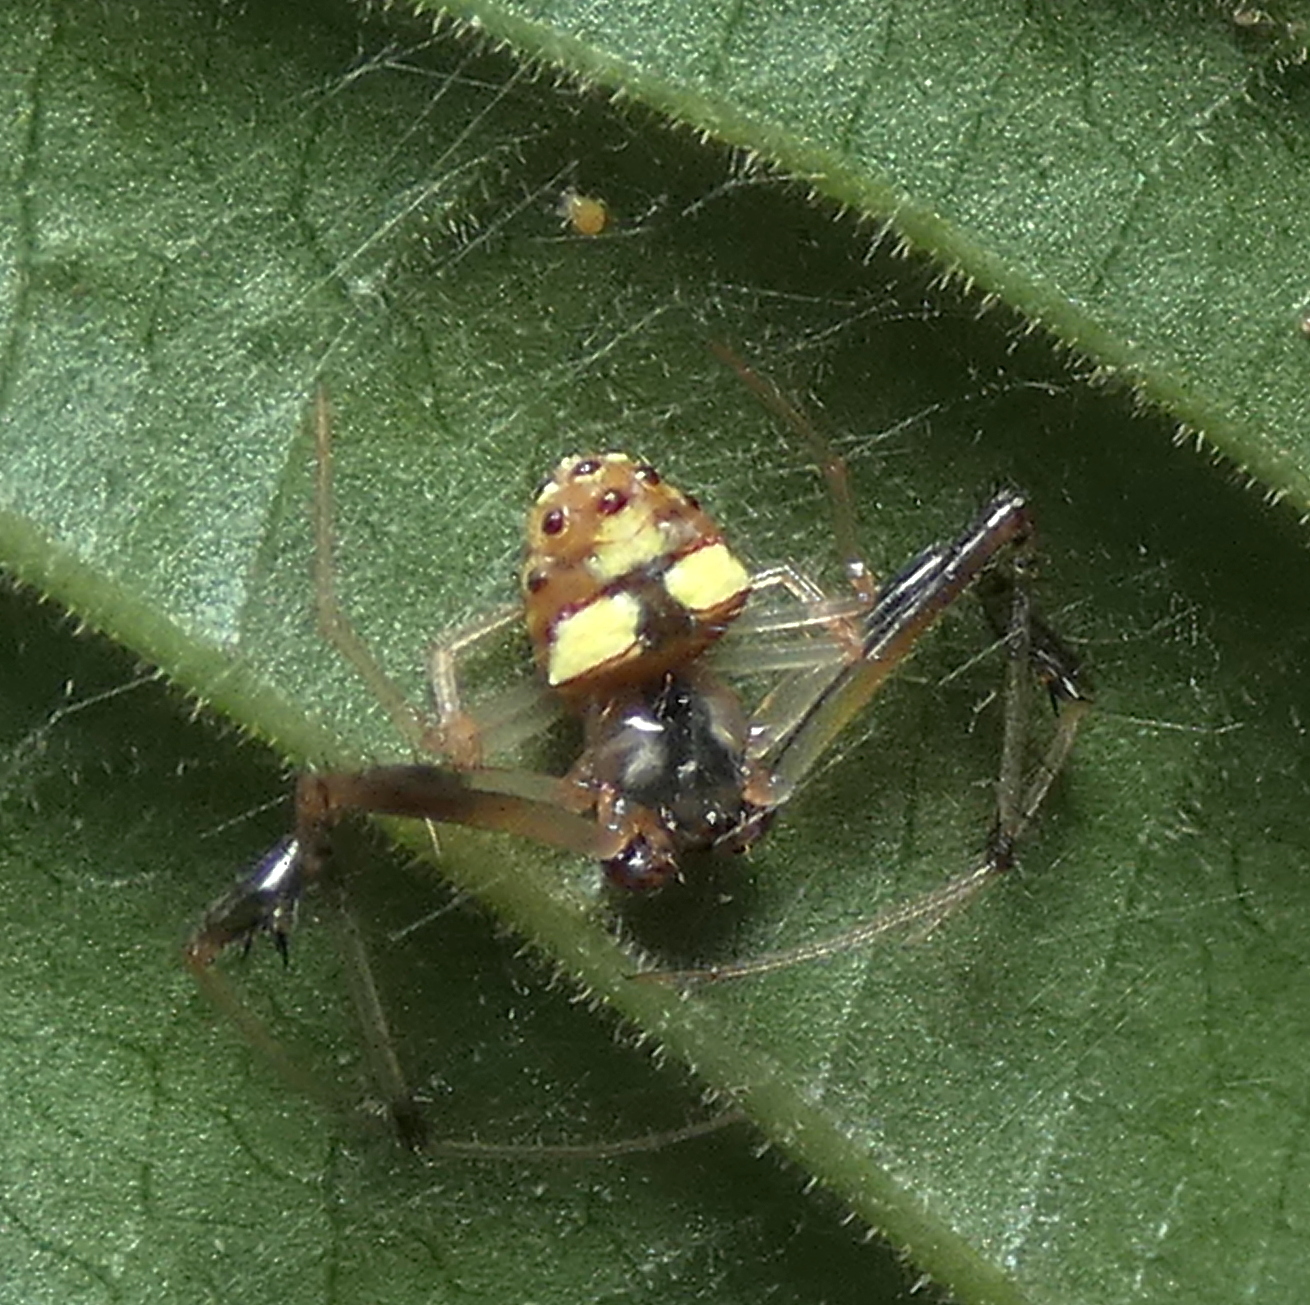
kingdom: Animalia
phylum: Arthropoda
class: Arachnida
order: Araneae
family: Araneidae
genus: Verrucosa
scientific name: Verrucosa zebra
